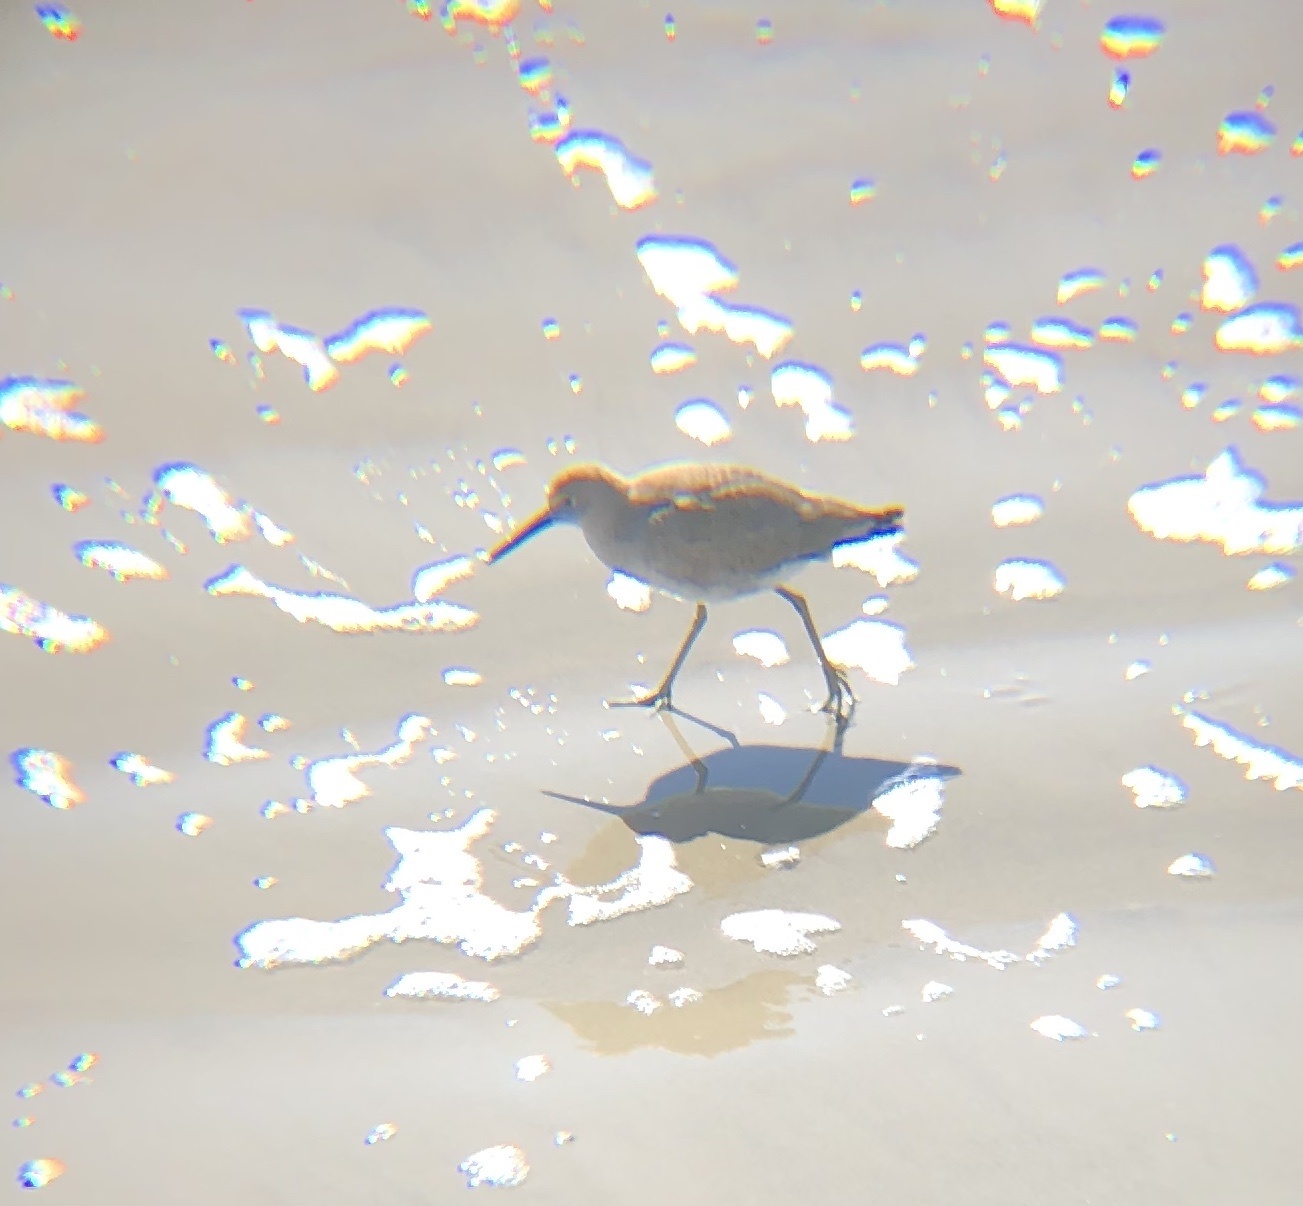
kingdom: Animalia
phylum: Chordata
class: Aves
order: Charadriiformes
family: Scolopacidae
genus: Tringa
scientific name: Tringa semipalmata
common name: Willet
